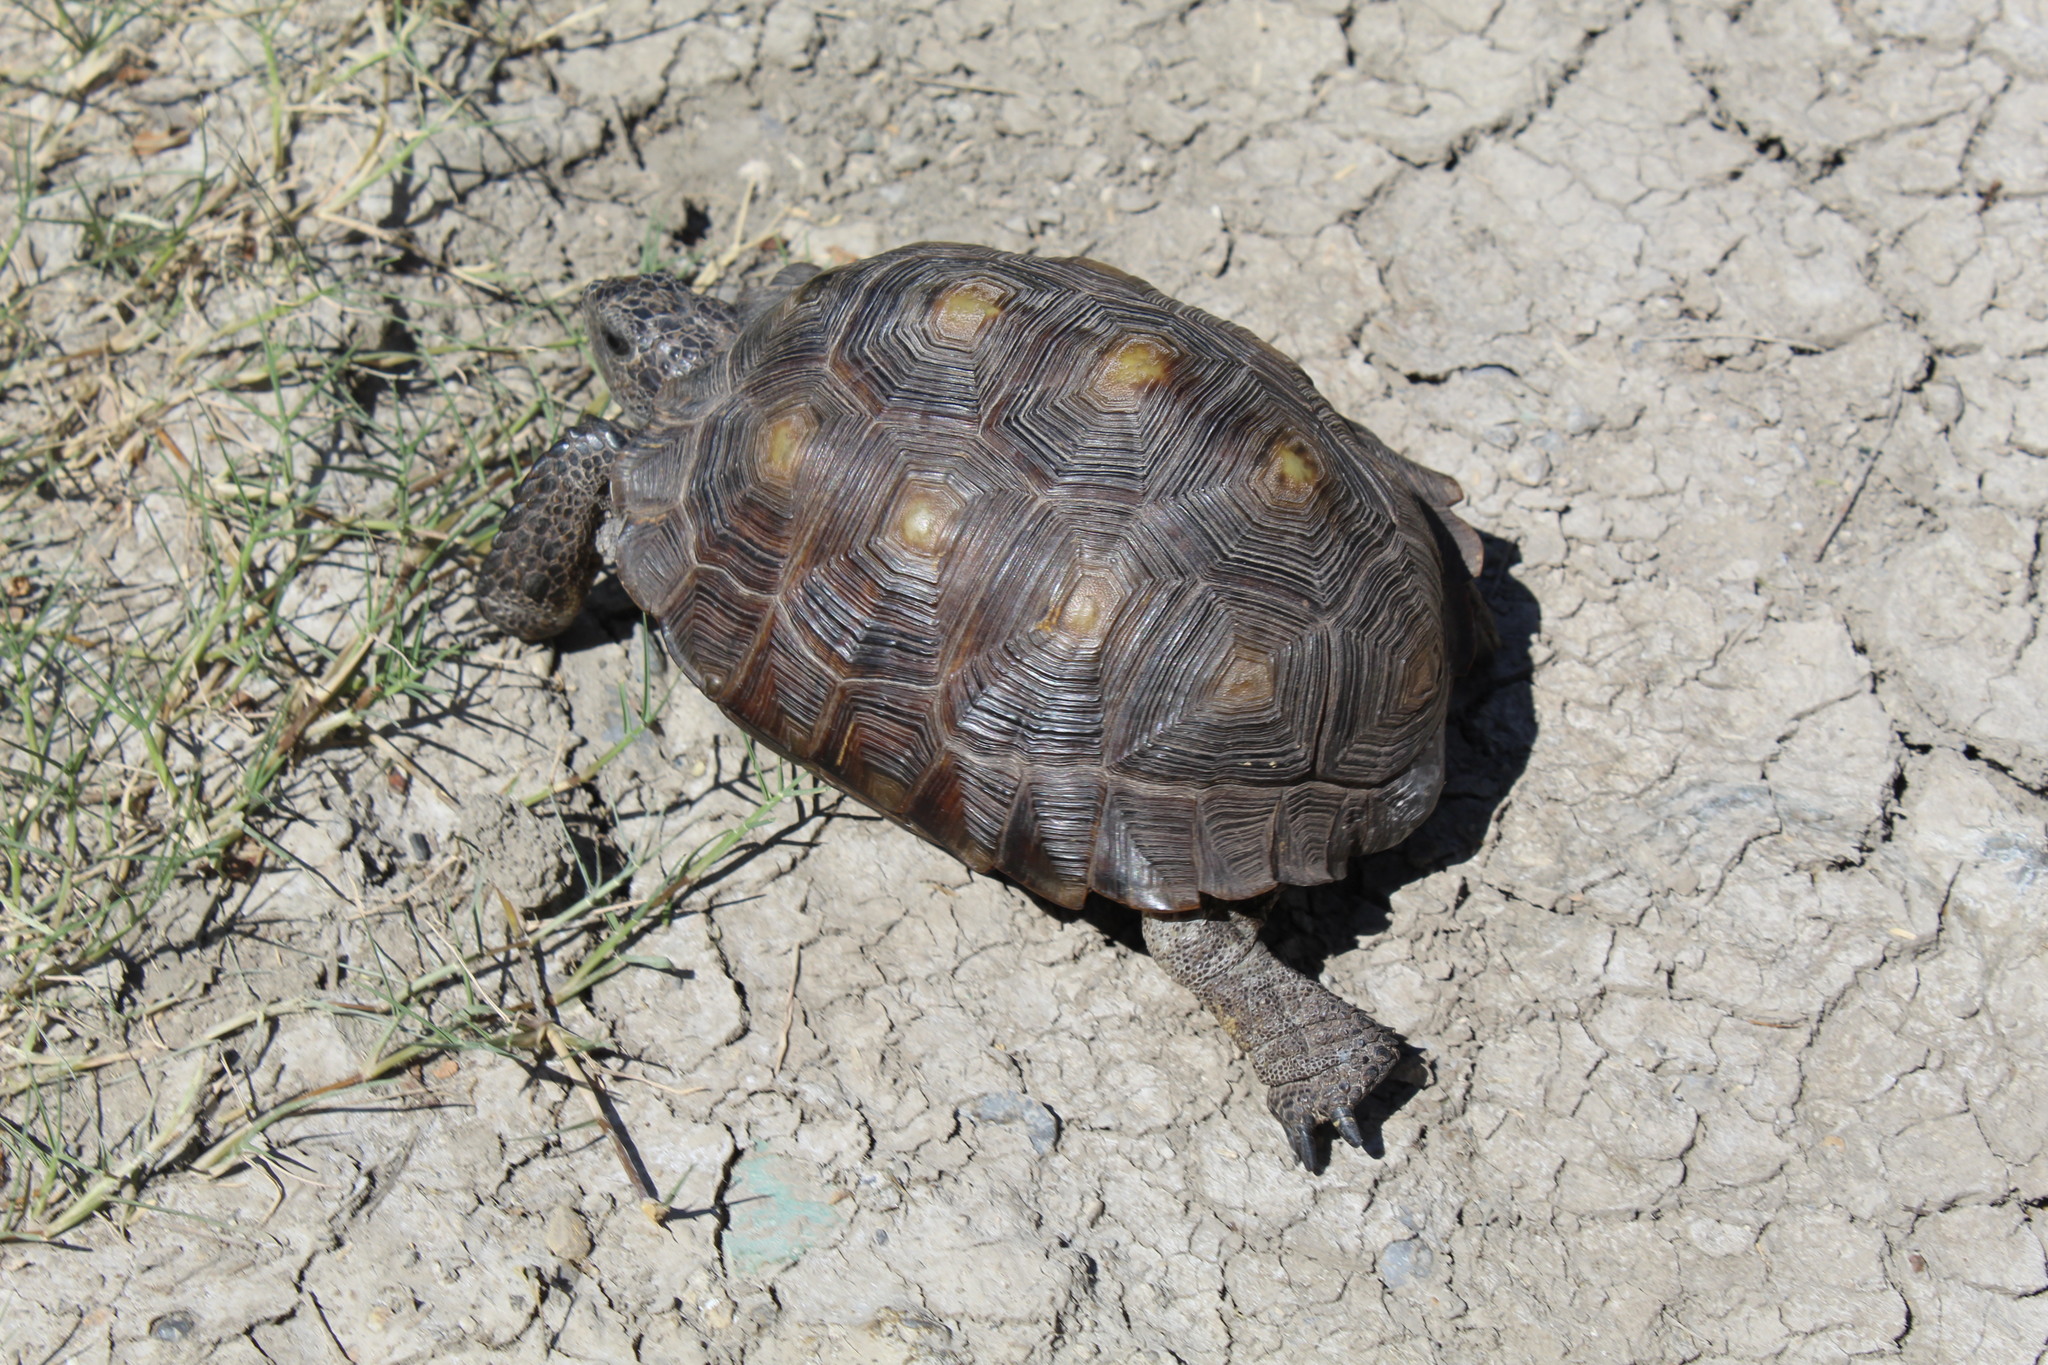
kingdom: Animalia
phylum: Chordata
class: Testudines
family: Testudinidae
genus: Gopherus
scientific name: Gopherus berlandieri
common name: Texas (gopher )tortoise
